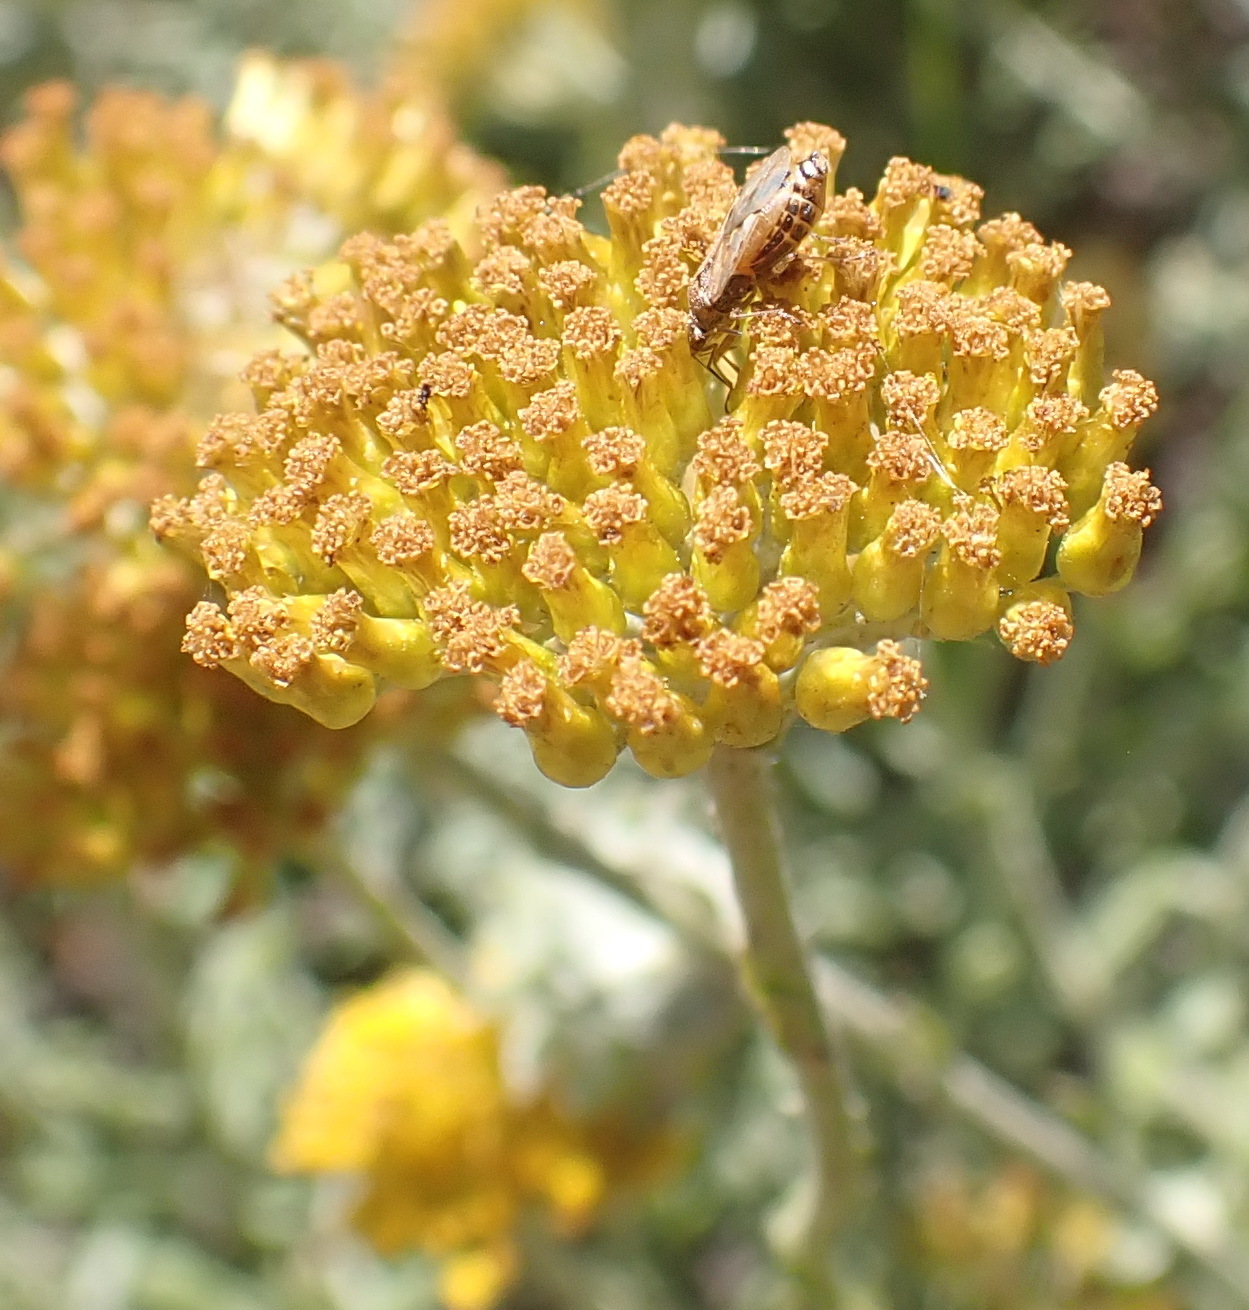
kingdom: Plantae
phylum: Tracheophyta
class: Magnoliopsida
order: Asterales
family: Asteraceae
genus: Helichrysum
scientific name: Helichrysum cymosum
